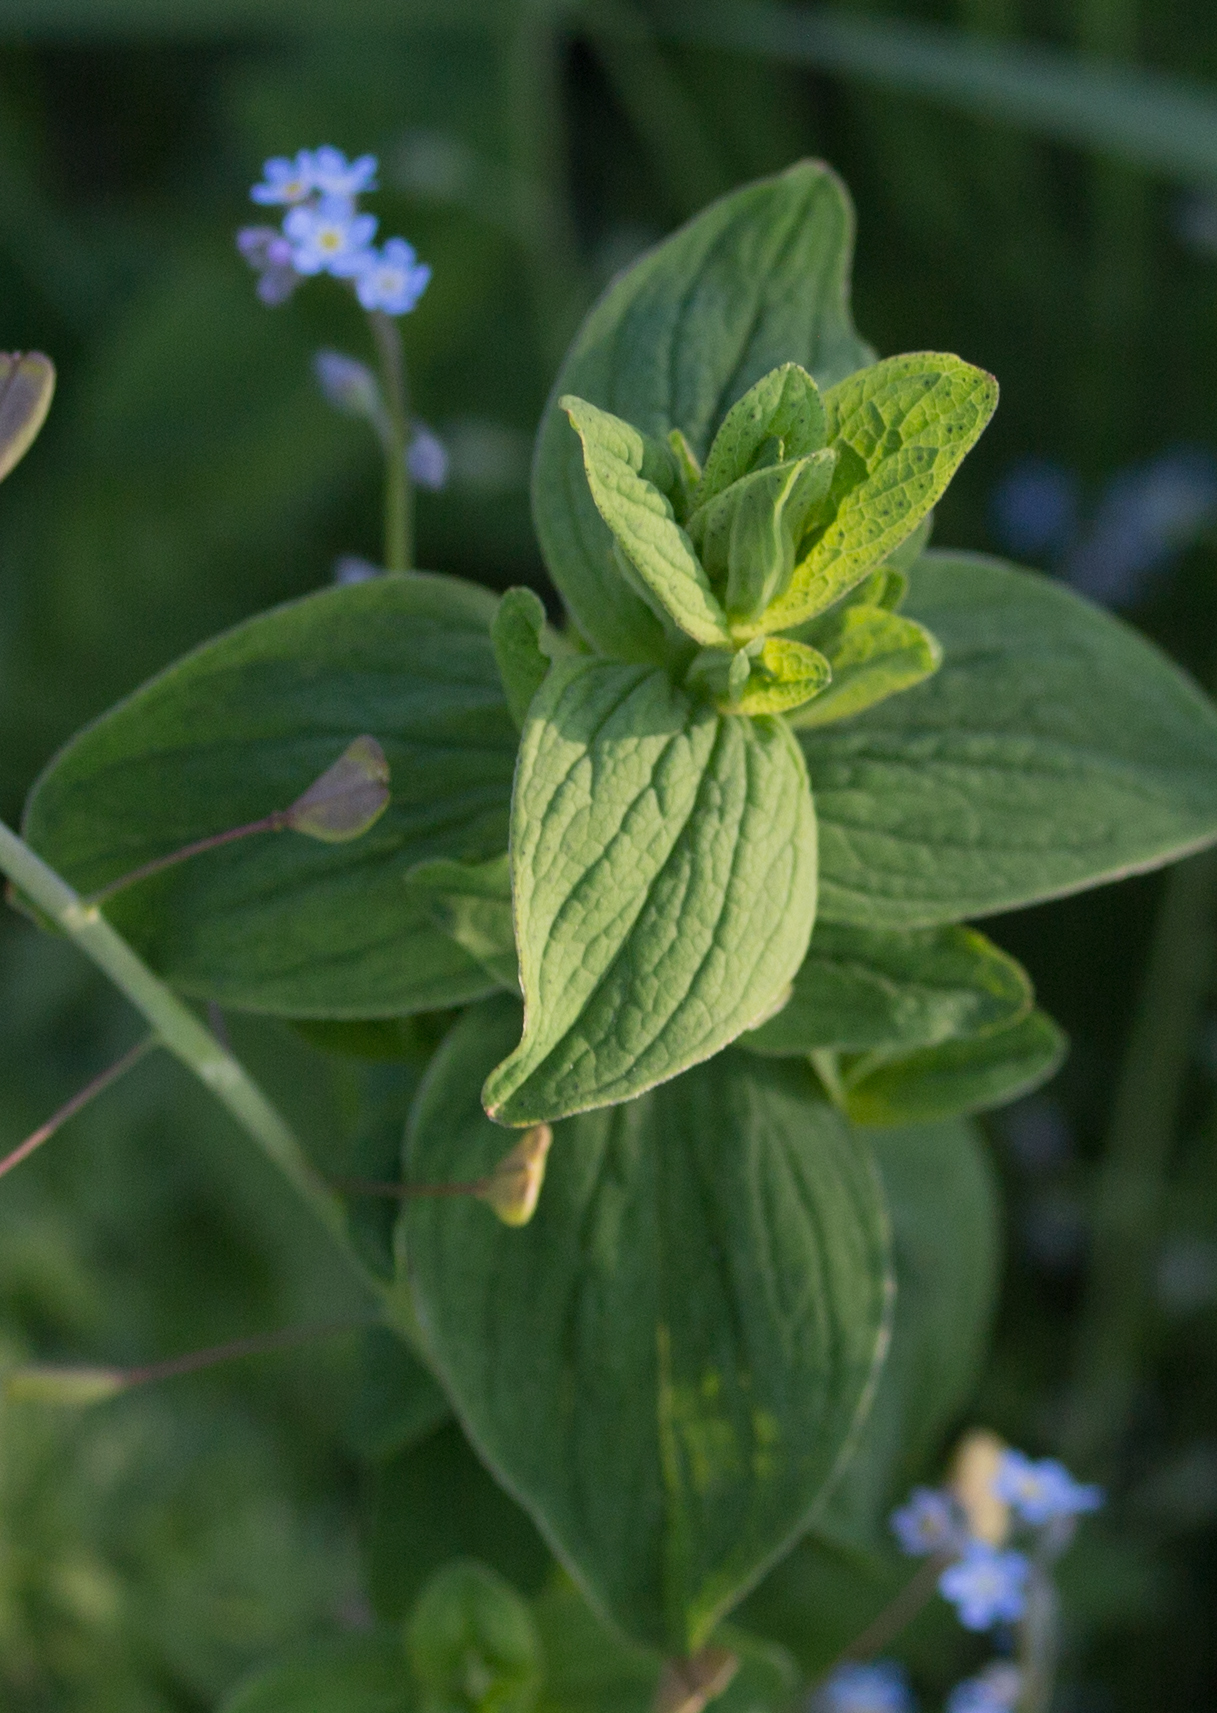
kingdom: Plantae
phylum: Tracheophyta
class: Magnoliopsida
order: Malpighiales
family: Hypericaceae
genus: Hypericum
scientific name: Hypericum maculatum
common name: Imperforate st. john's-wort
